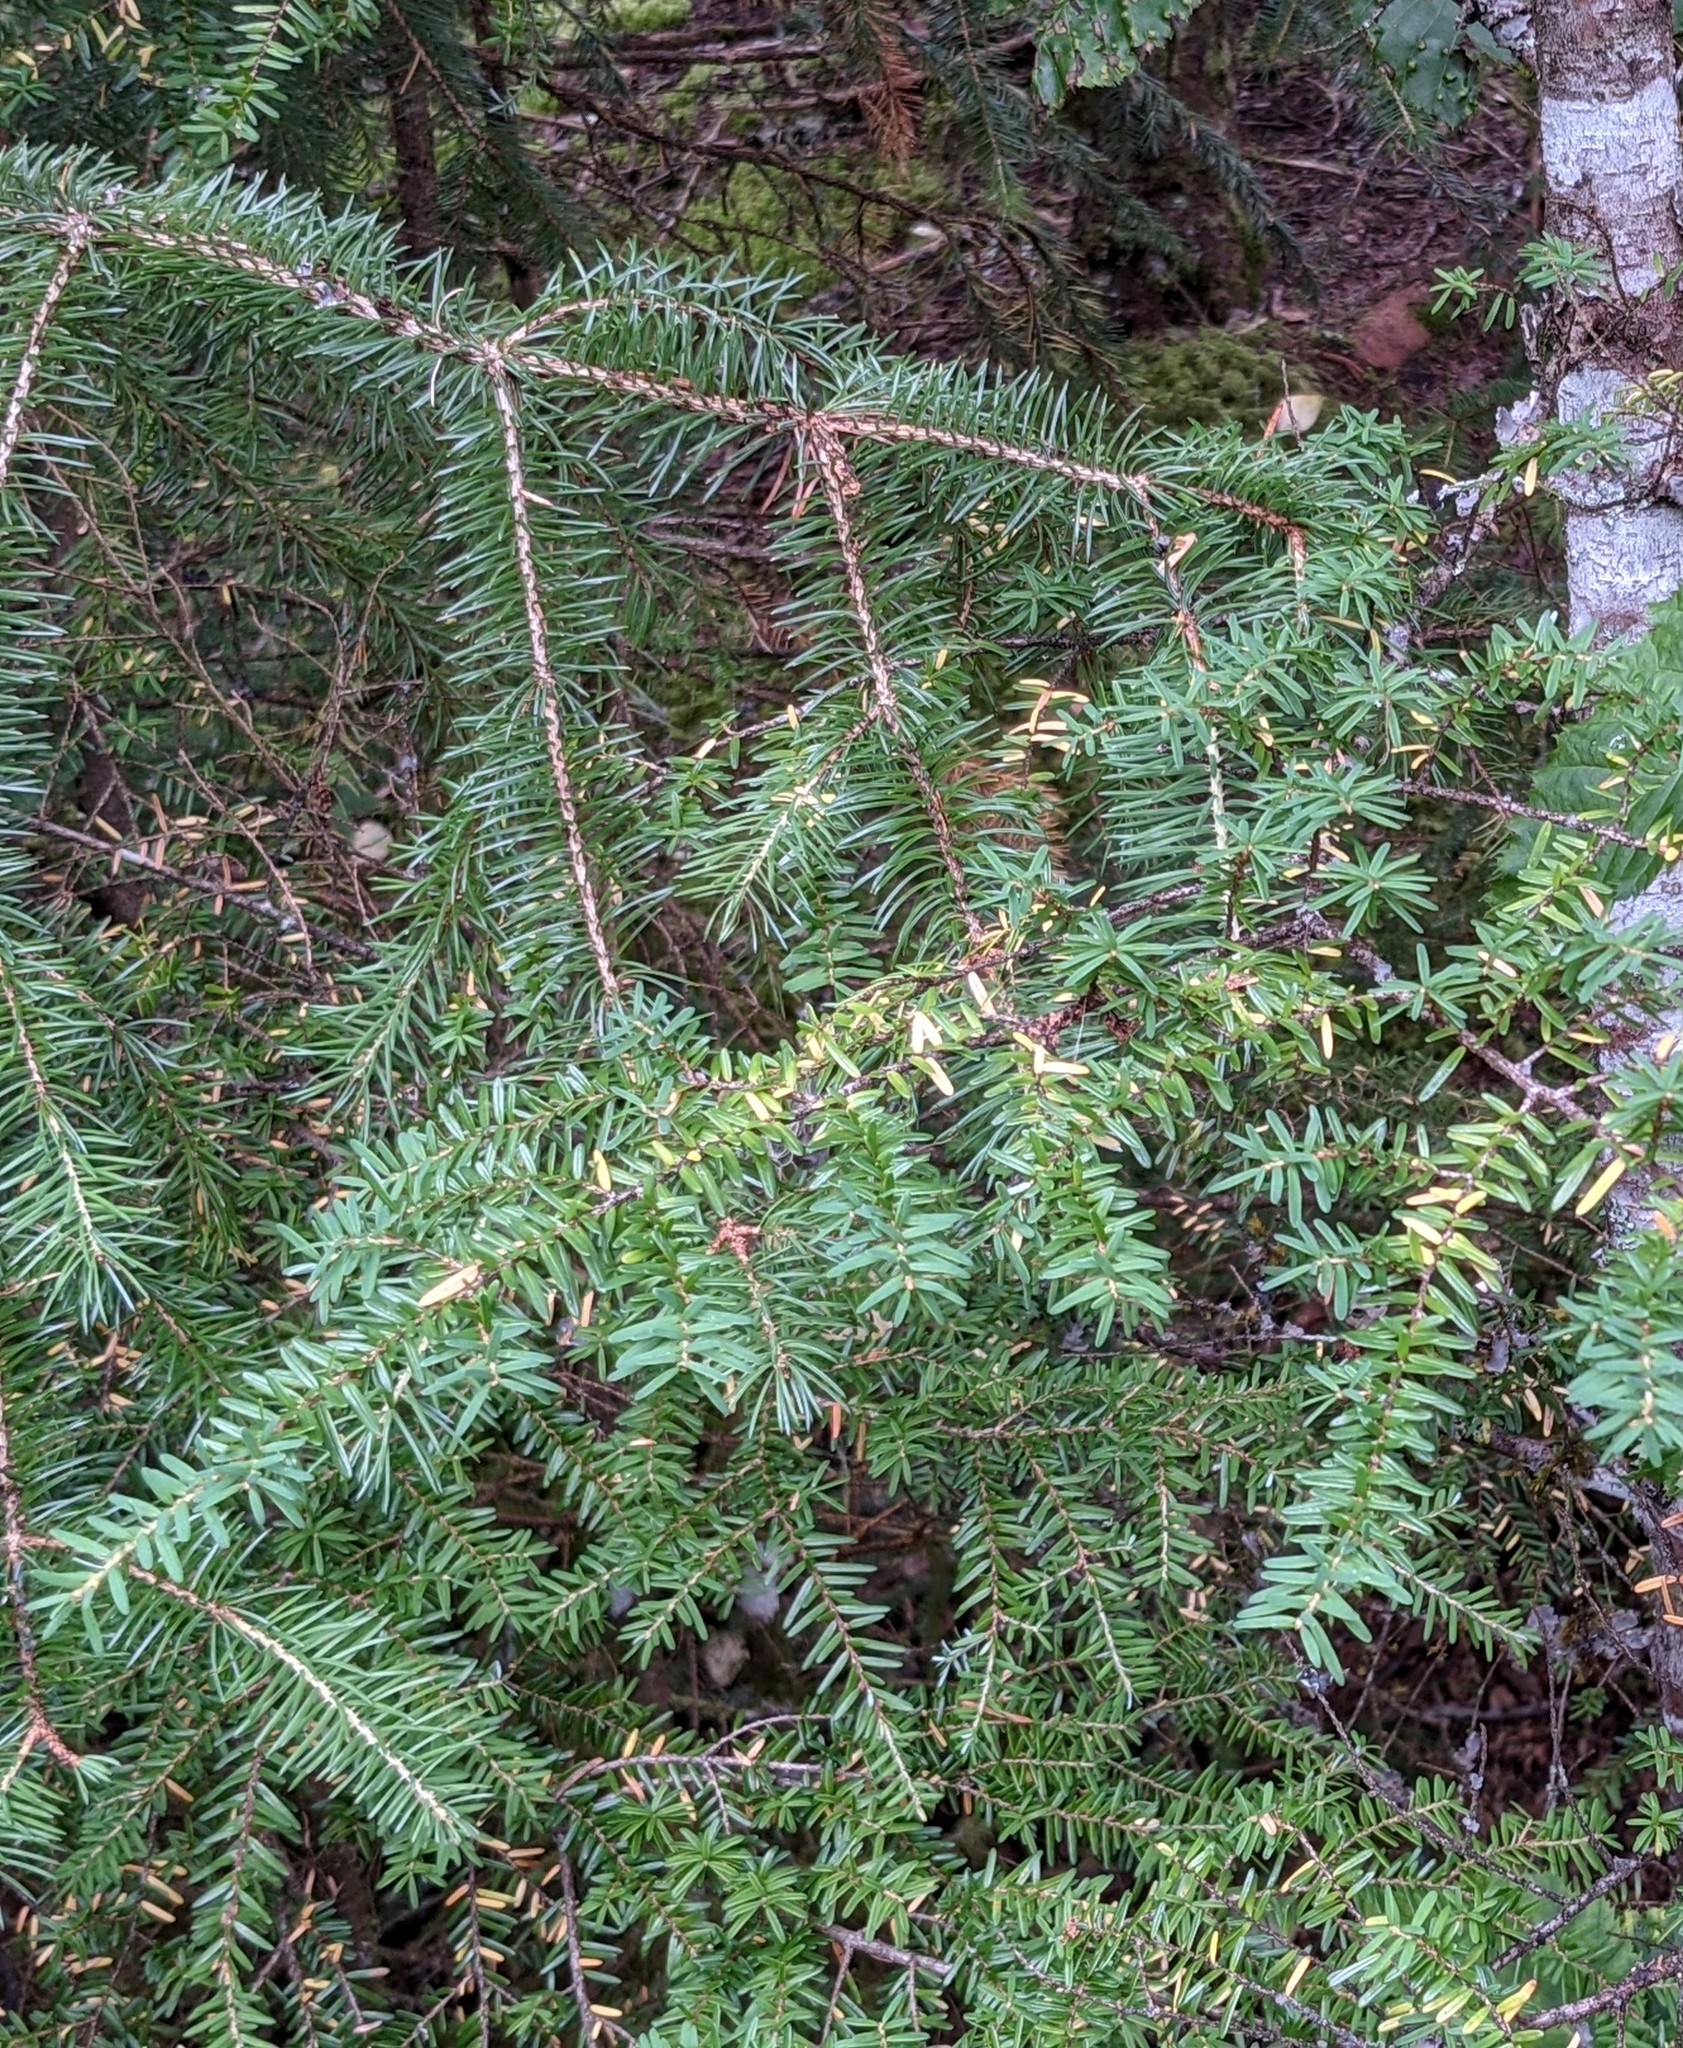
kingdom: Plantae
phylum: Tracheophyta
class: Pinopsida
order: Pinales
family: Pinaceae
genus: Tsuga
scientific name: Tsuga heterophylla
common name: Western hemlock
